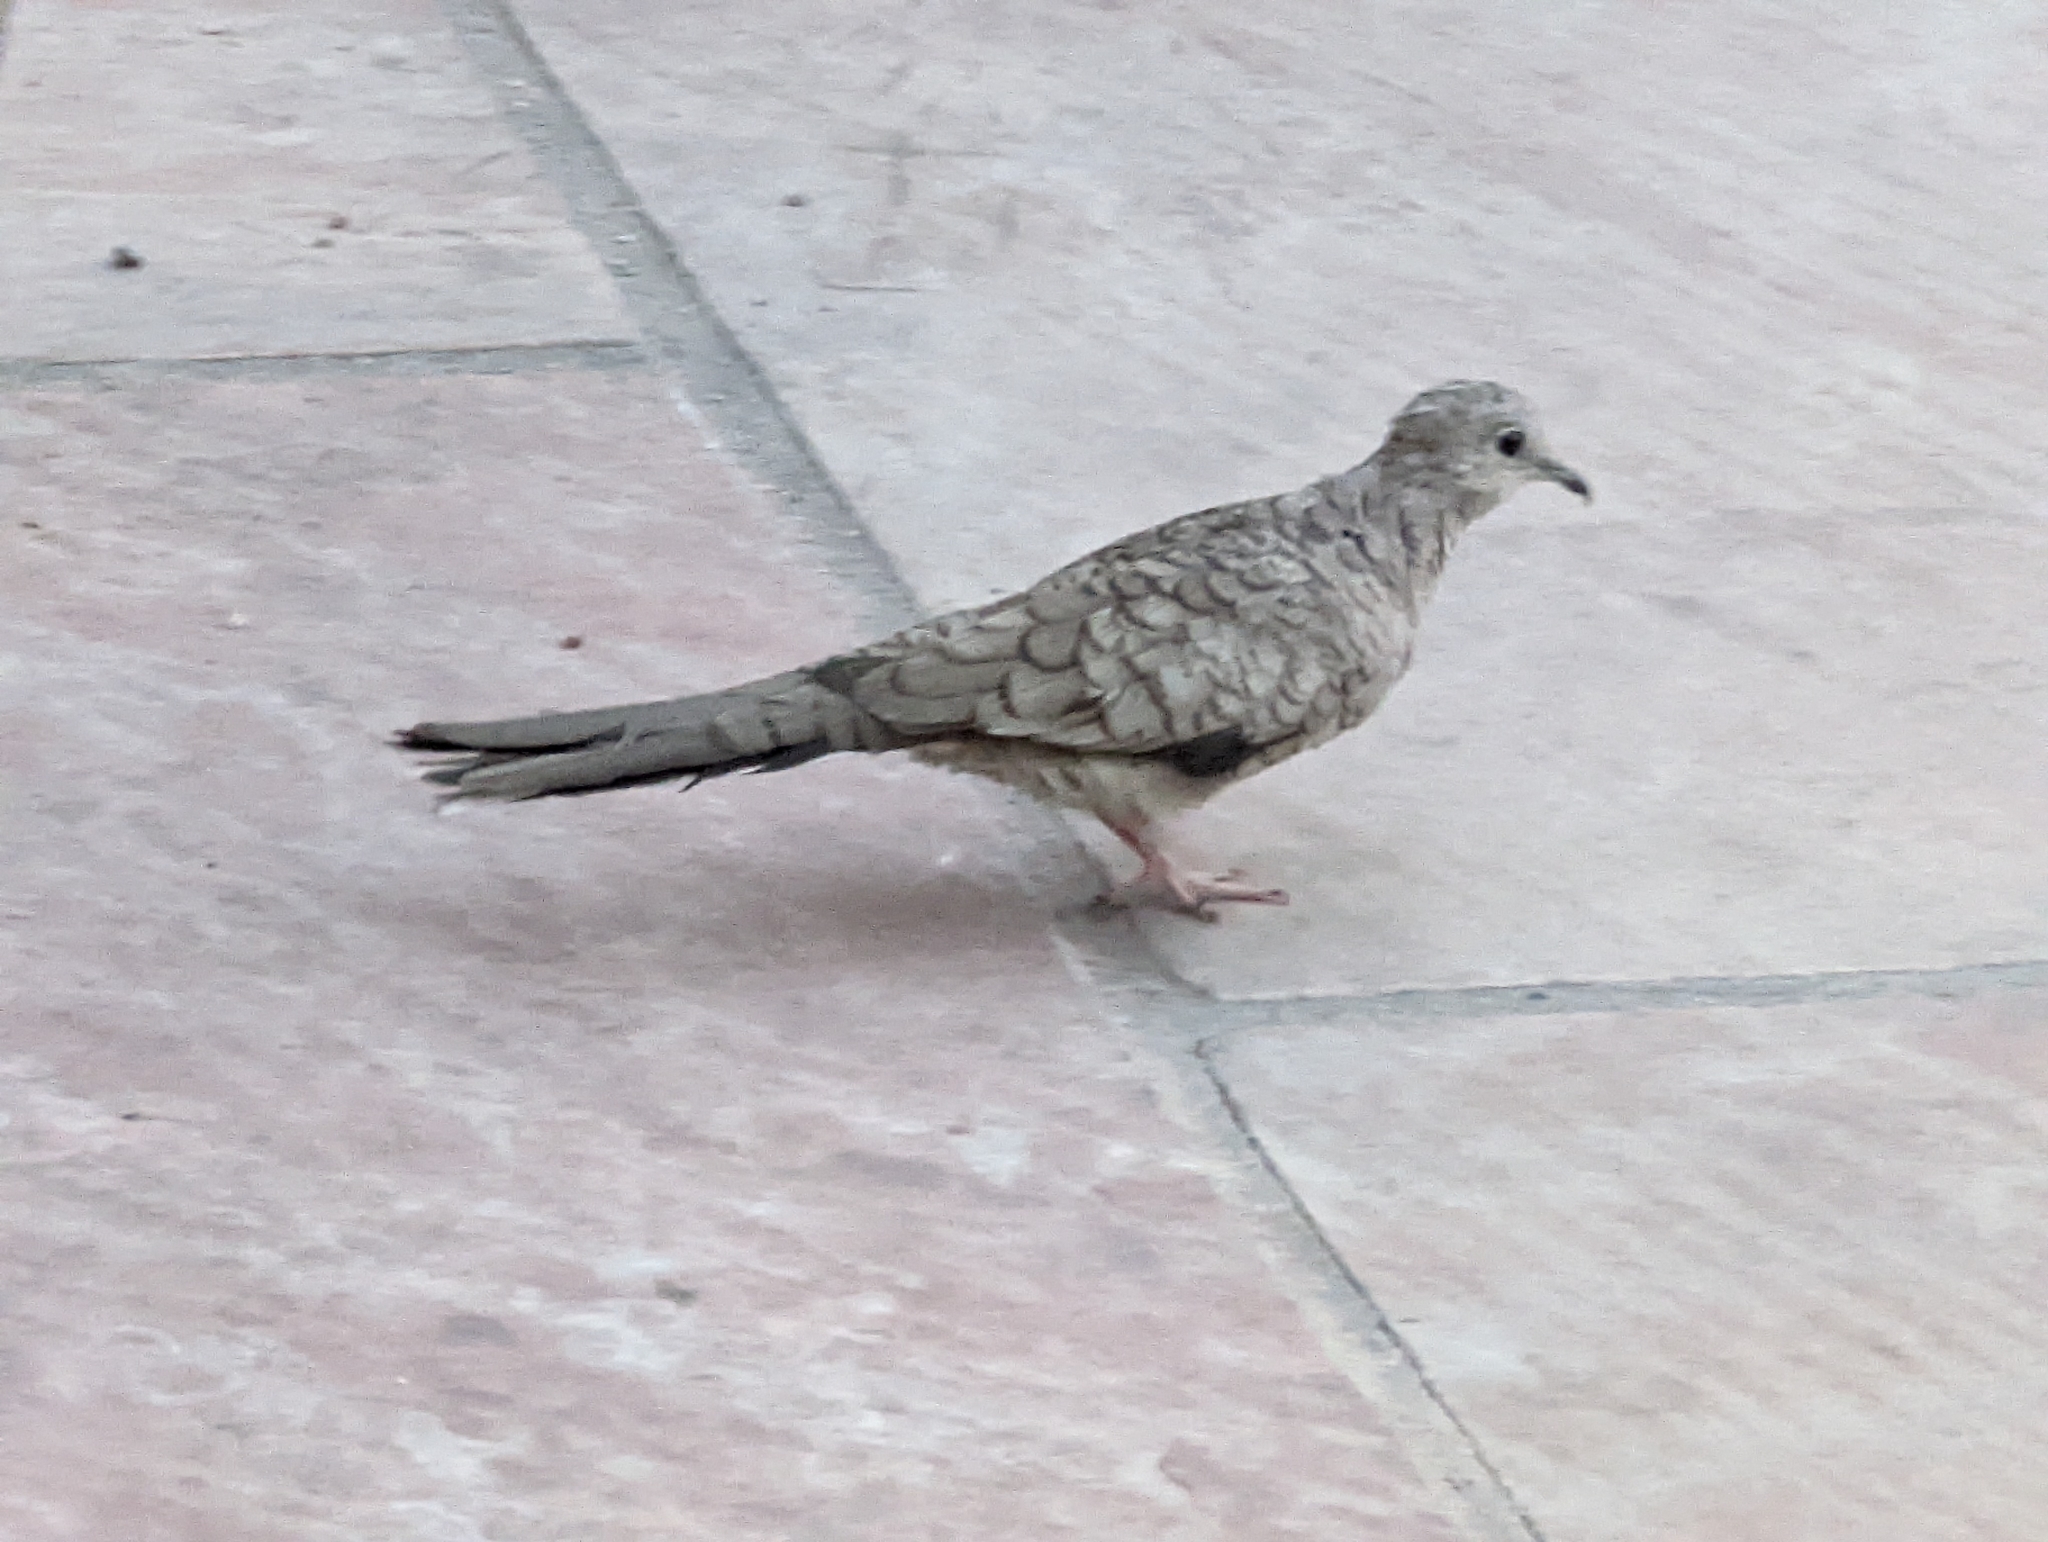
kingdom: Animalia
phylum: Chordata
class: Aves
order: Columbiformes
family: Columbidae
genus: Columbina
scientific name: Columbina inca
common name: Inca dove
